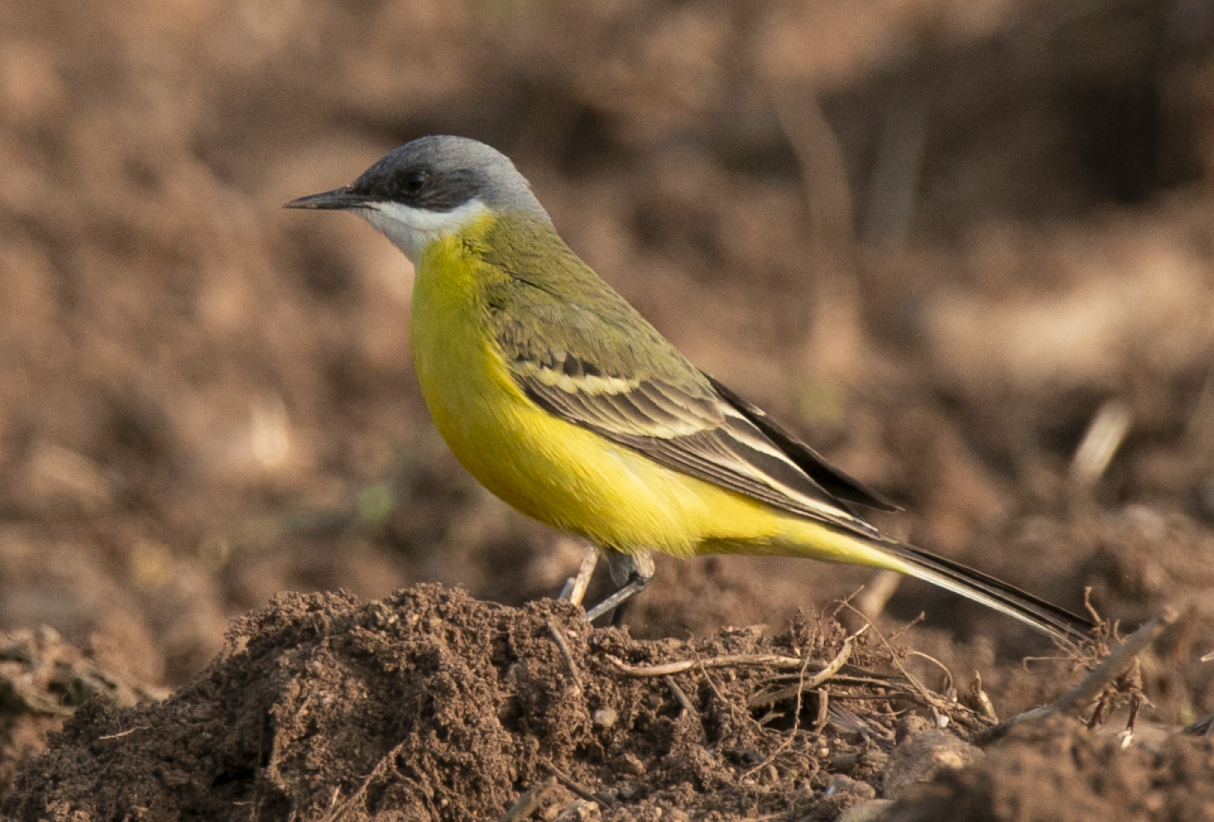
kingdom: Animalia
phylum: Chordata
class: Aves
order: Passeriformes
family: Motacillidae
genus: Motacilla
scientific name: Motacilla flava
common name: Western yellow wagtail
